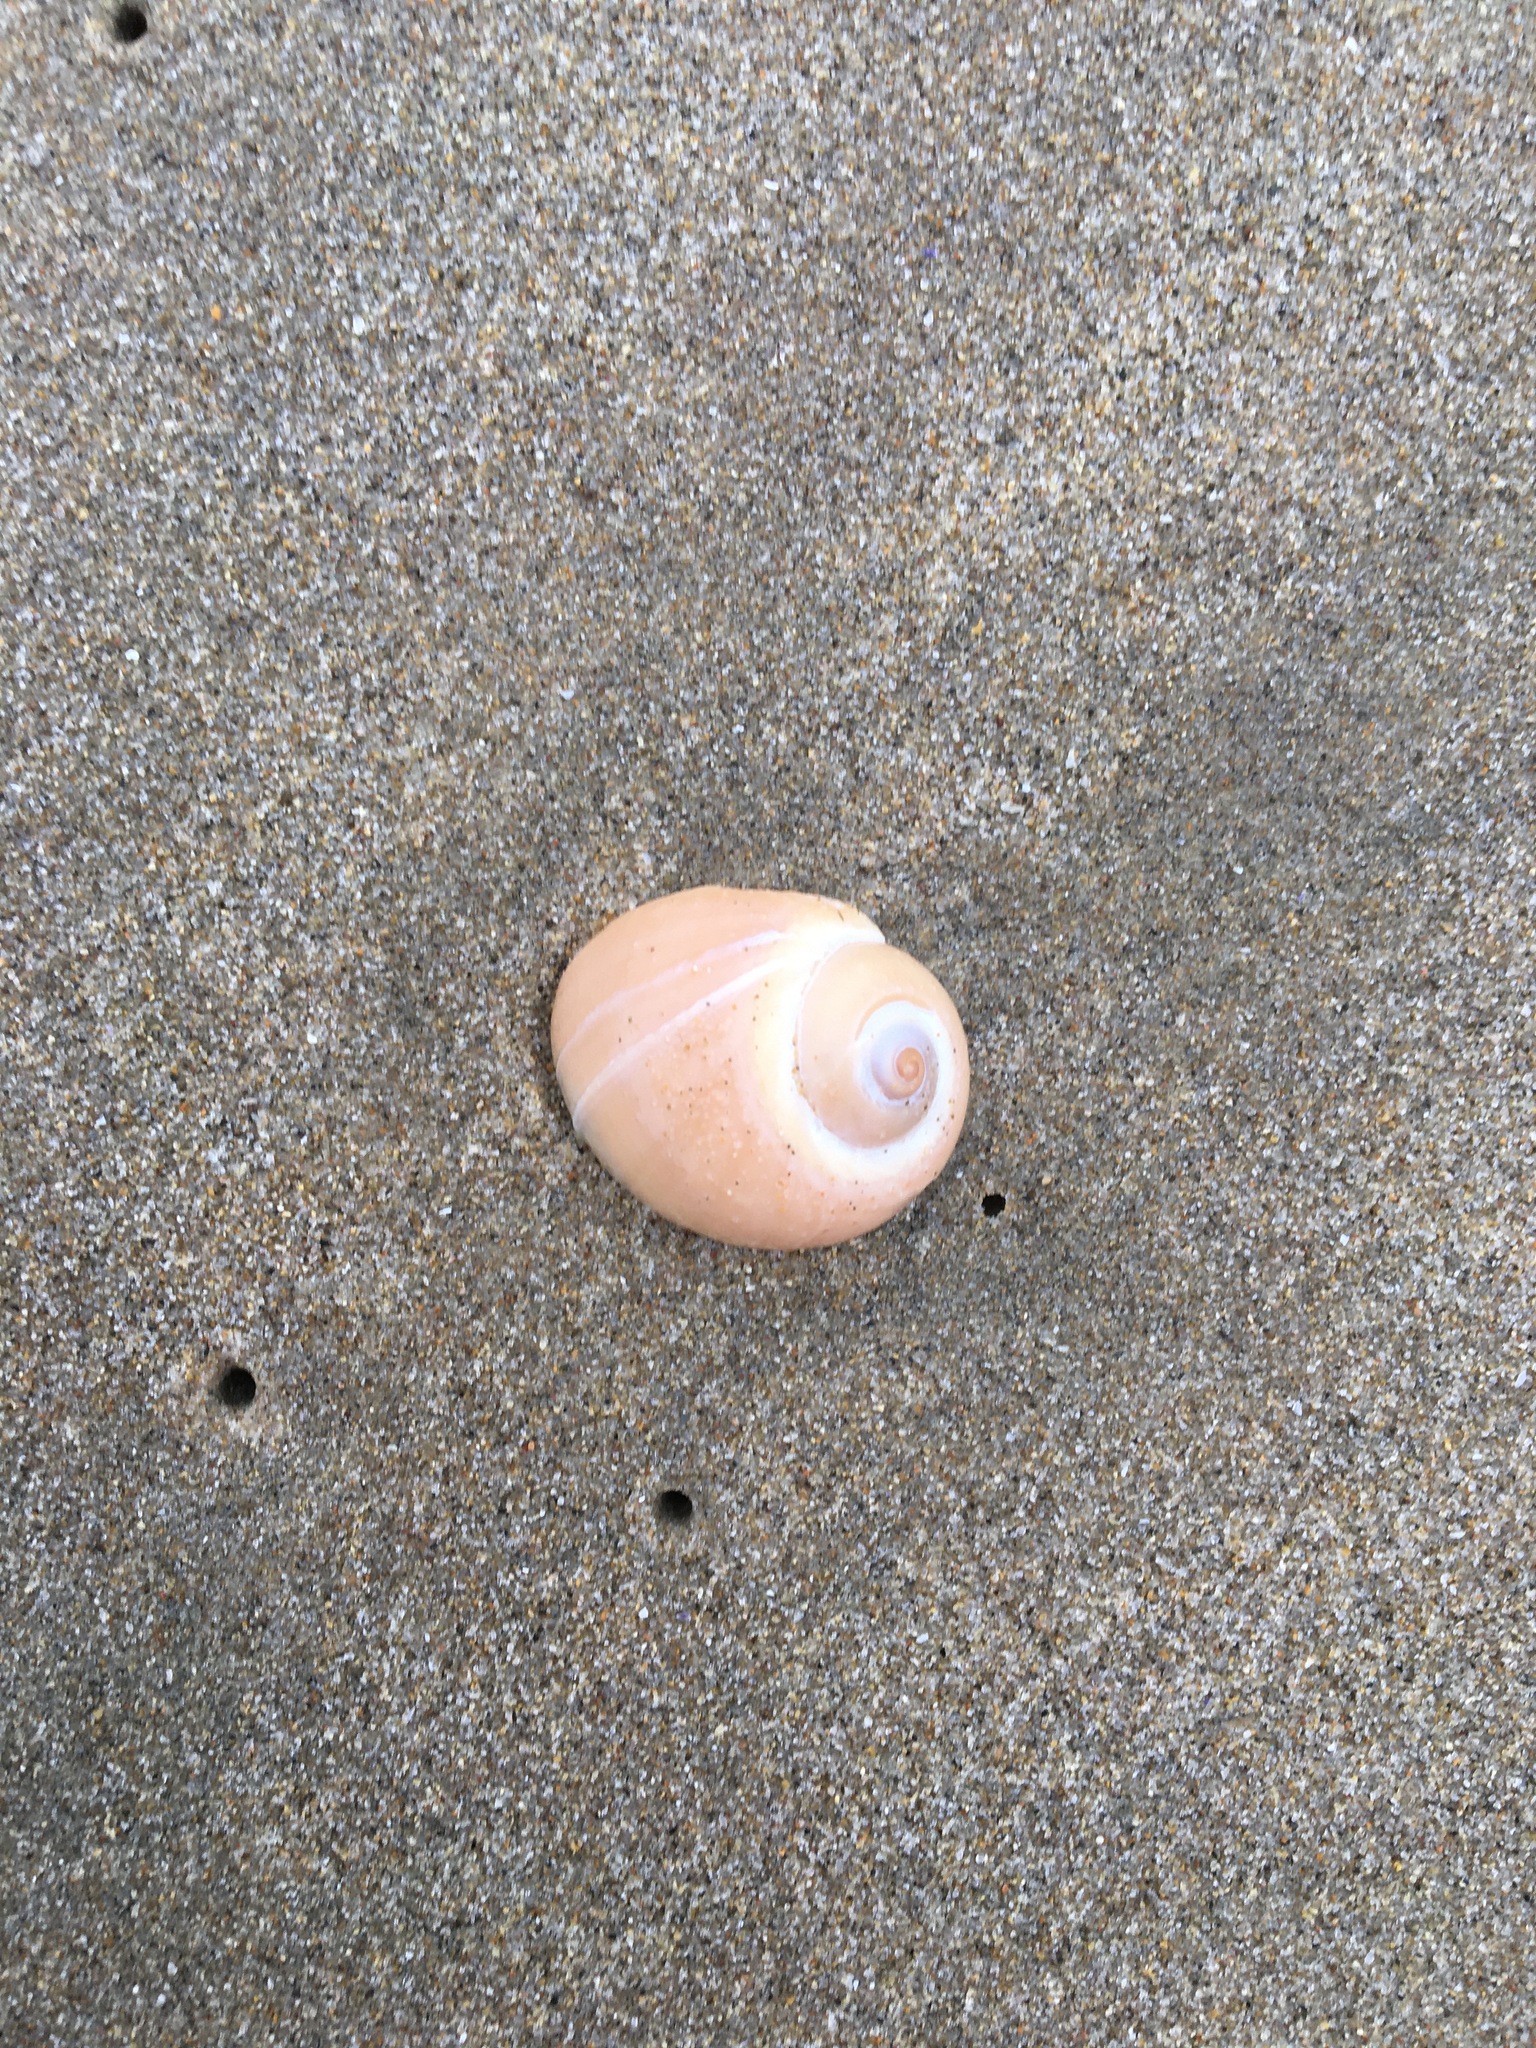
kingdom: Animalia
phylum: Mollusca
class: Gastropoda
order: Littorinimorpha
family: Naticidae
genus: Glossaulax
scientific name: Glossaulax reclusiana
